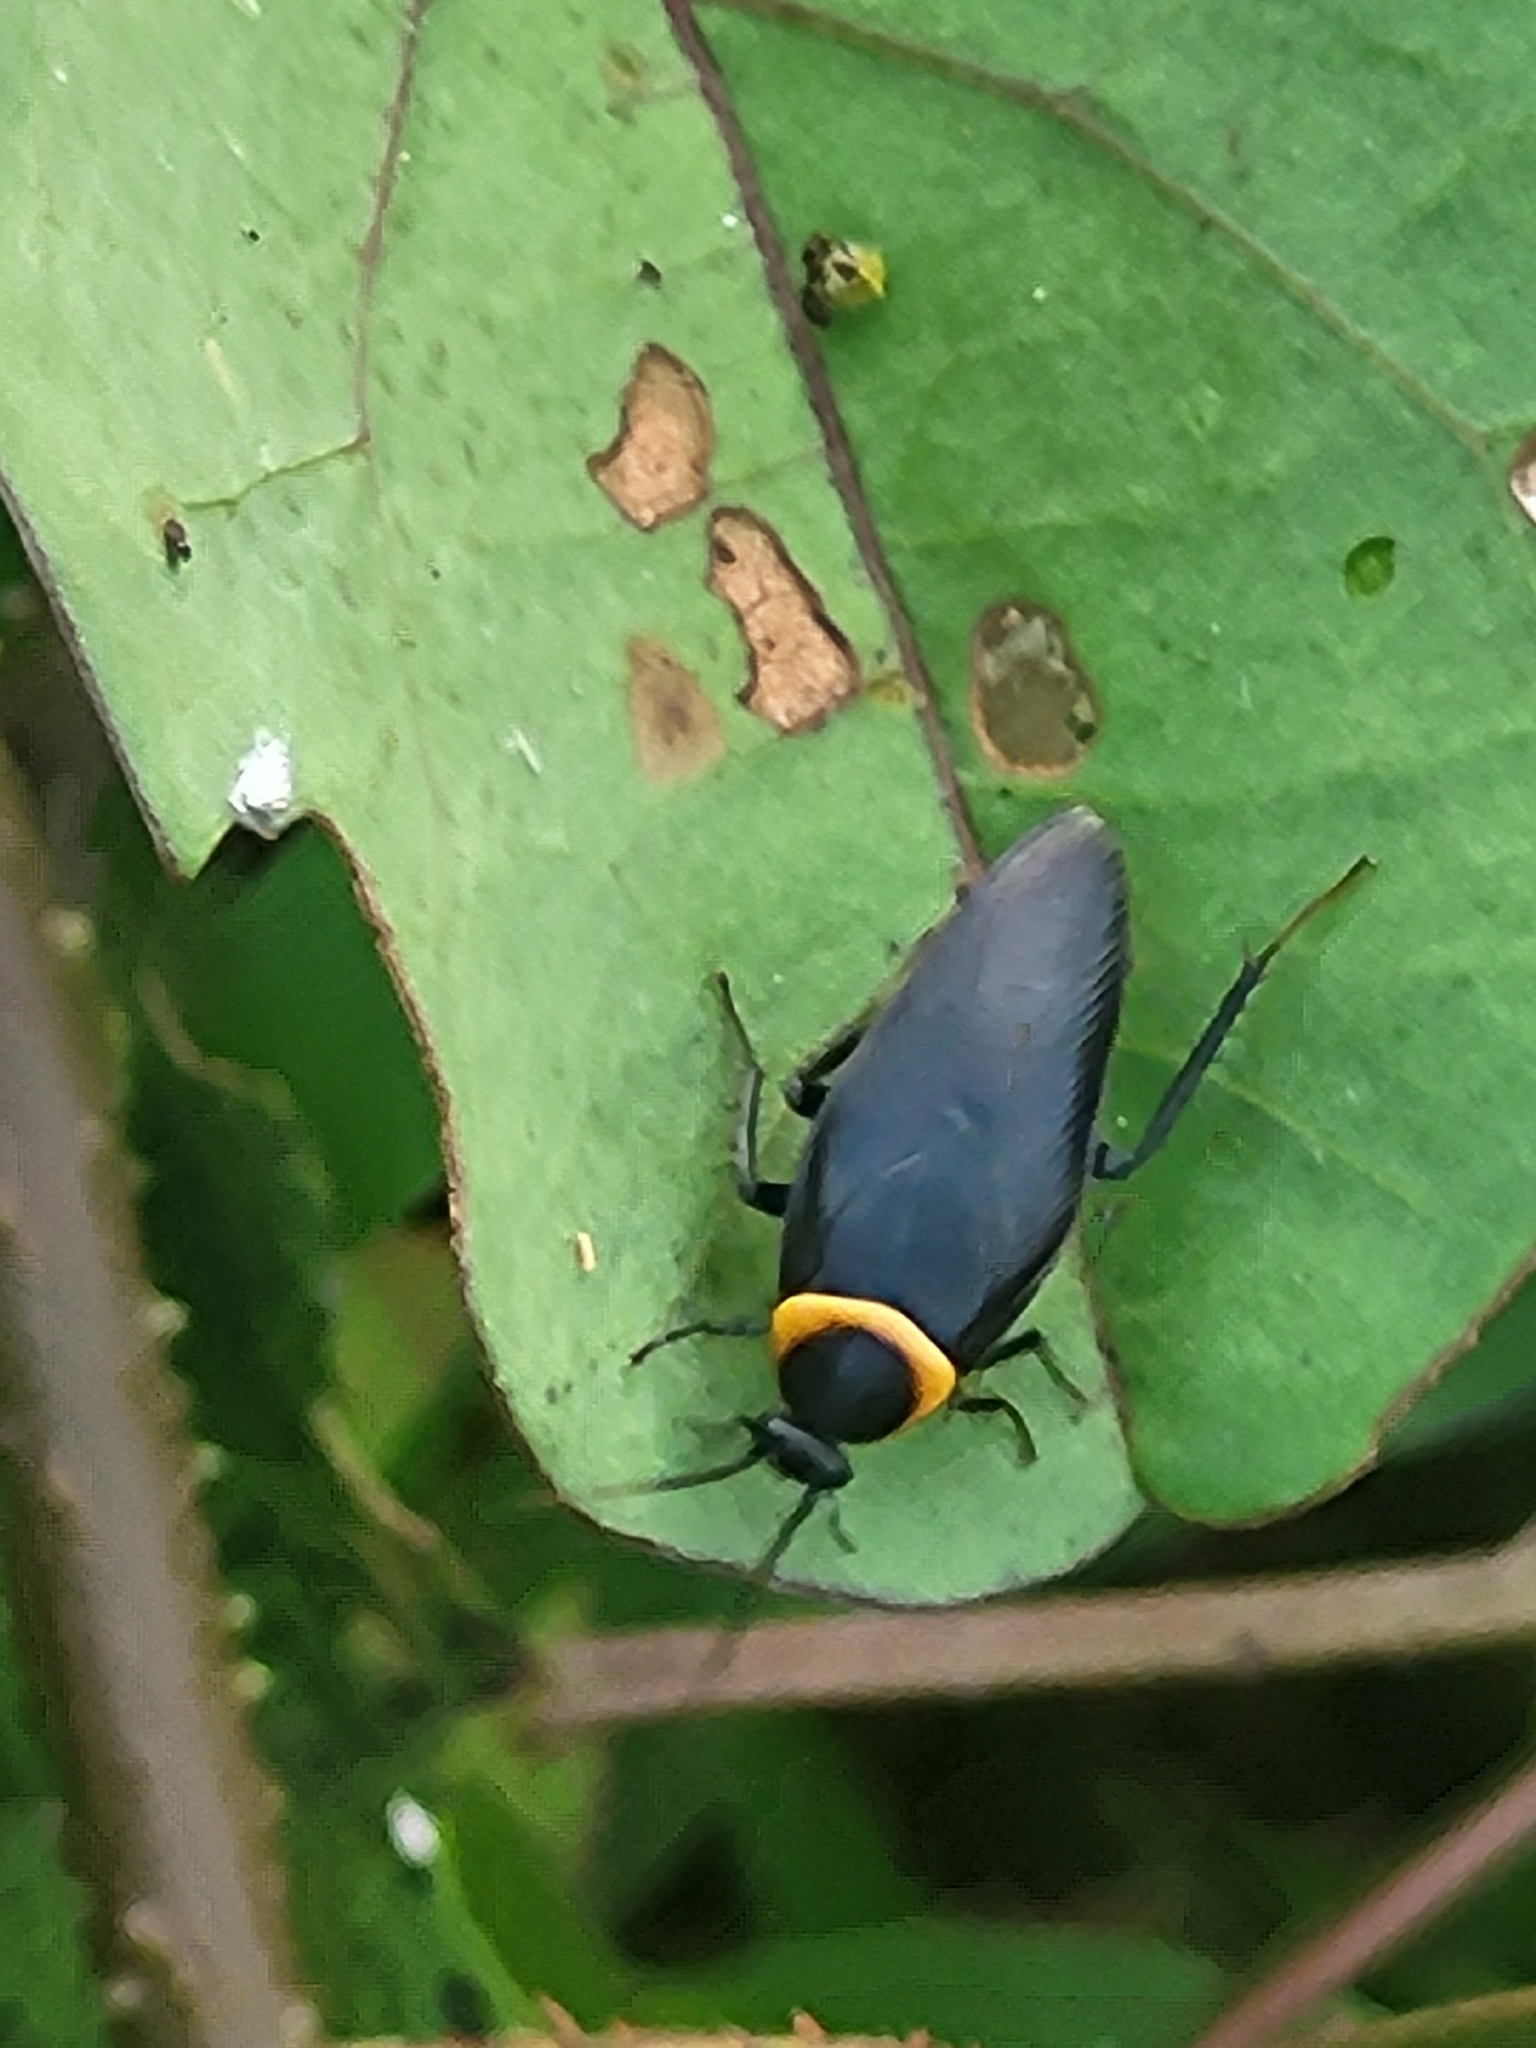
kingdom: Animalia
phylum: Arthropoda
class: Insecta
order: Blattodea
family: Ectobiidae
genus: Hemithyrsocera
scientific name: Hemithyrsocera palliata
